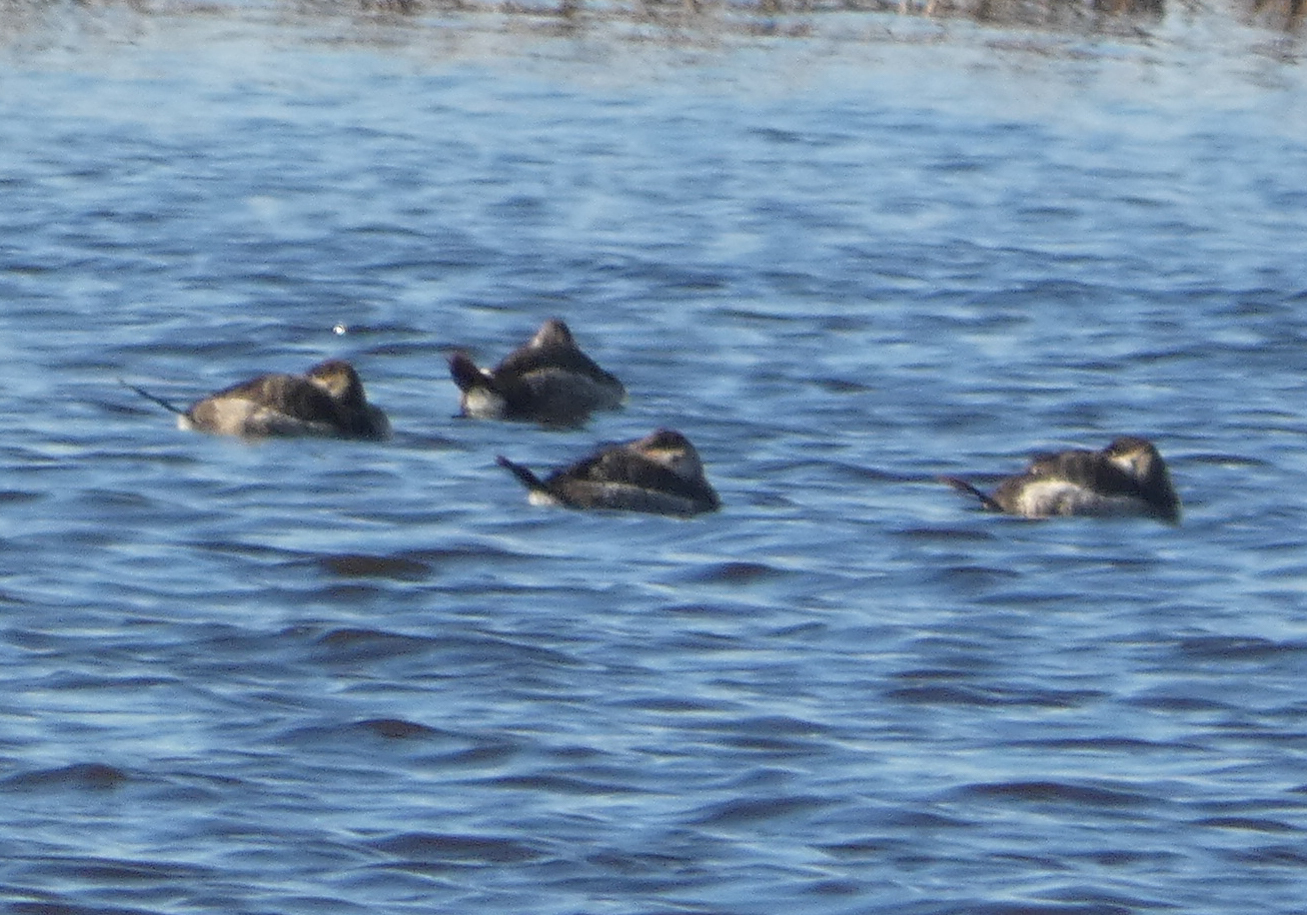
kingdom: Animalia
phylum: Chordata
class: Aves
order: Anseriformes
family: Anatidae
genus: Oxyura
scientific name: Oxyura jamaicensis
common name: Ruddy duck
